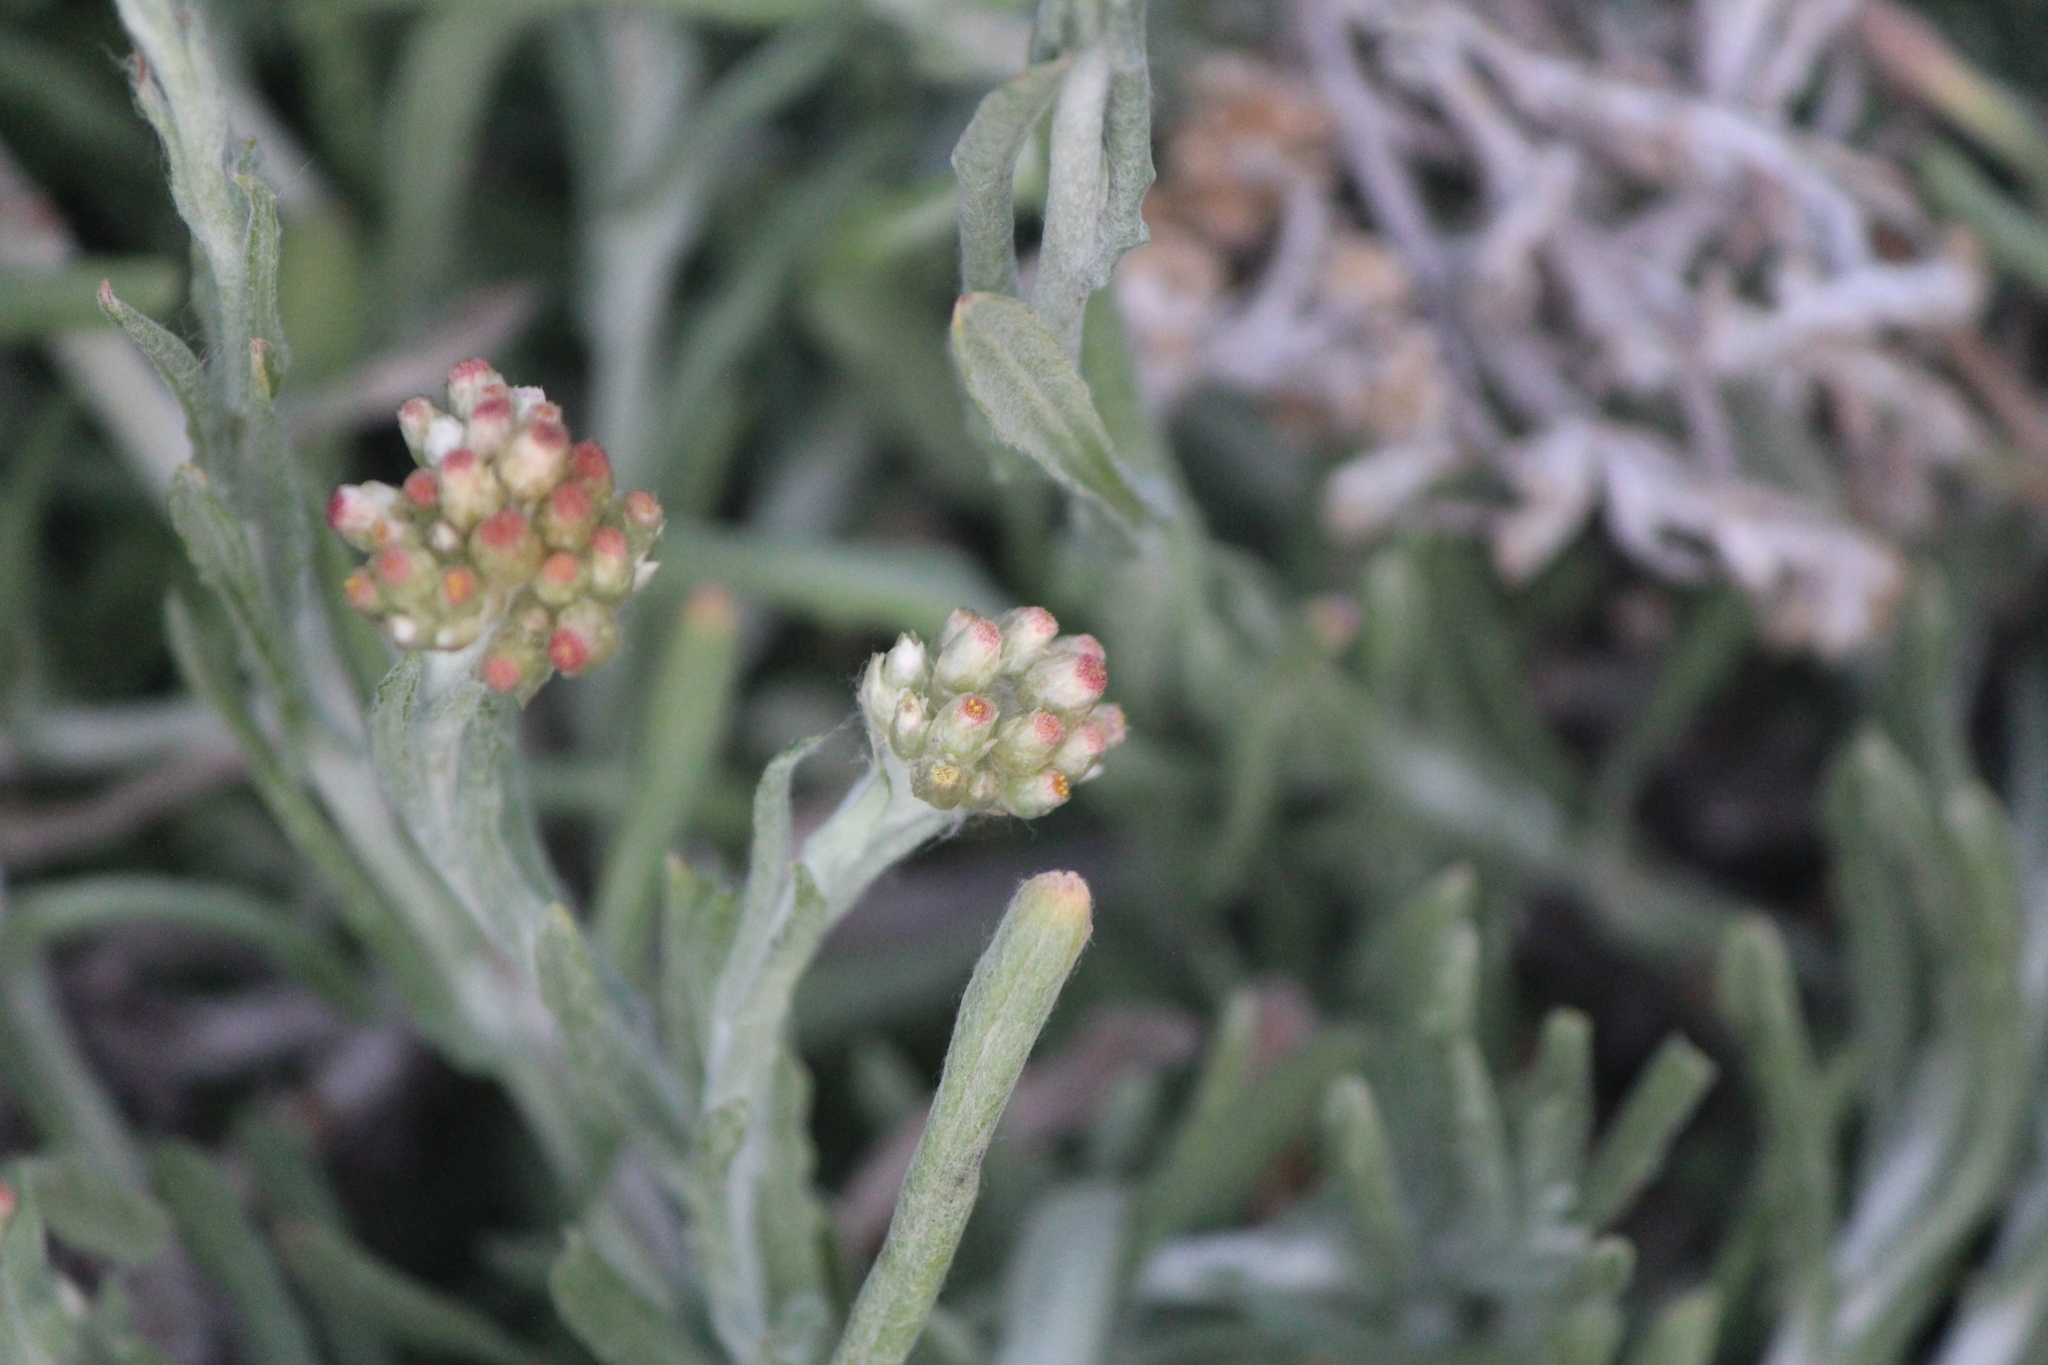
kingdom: Plantae
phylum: Tracheophyta
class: Magnoliopsida
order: Asterales
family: Asteraceae
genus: Helichrysum
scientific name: Helichrysum luteoalbum
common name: Daisy
